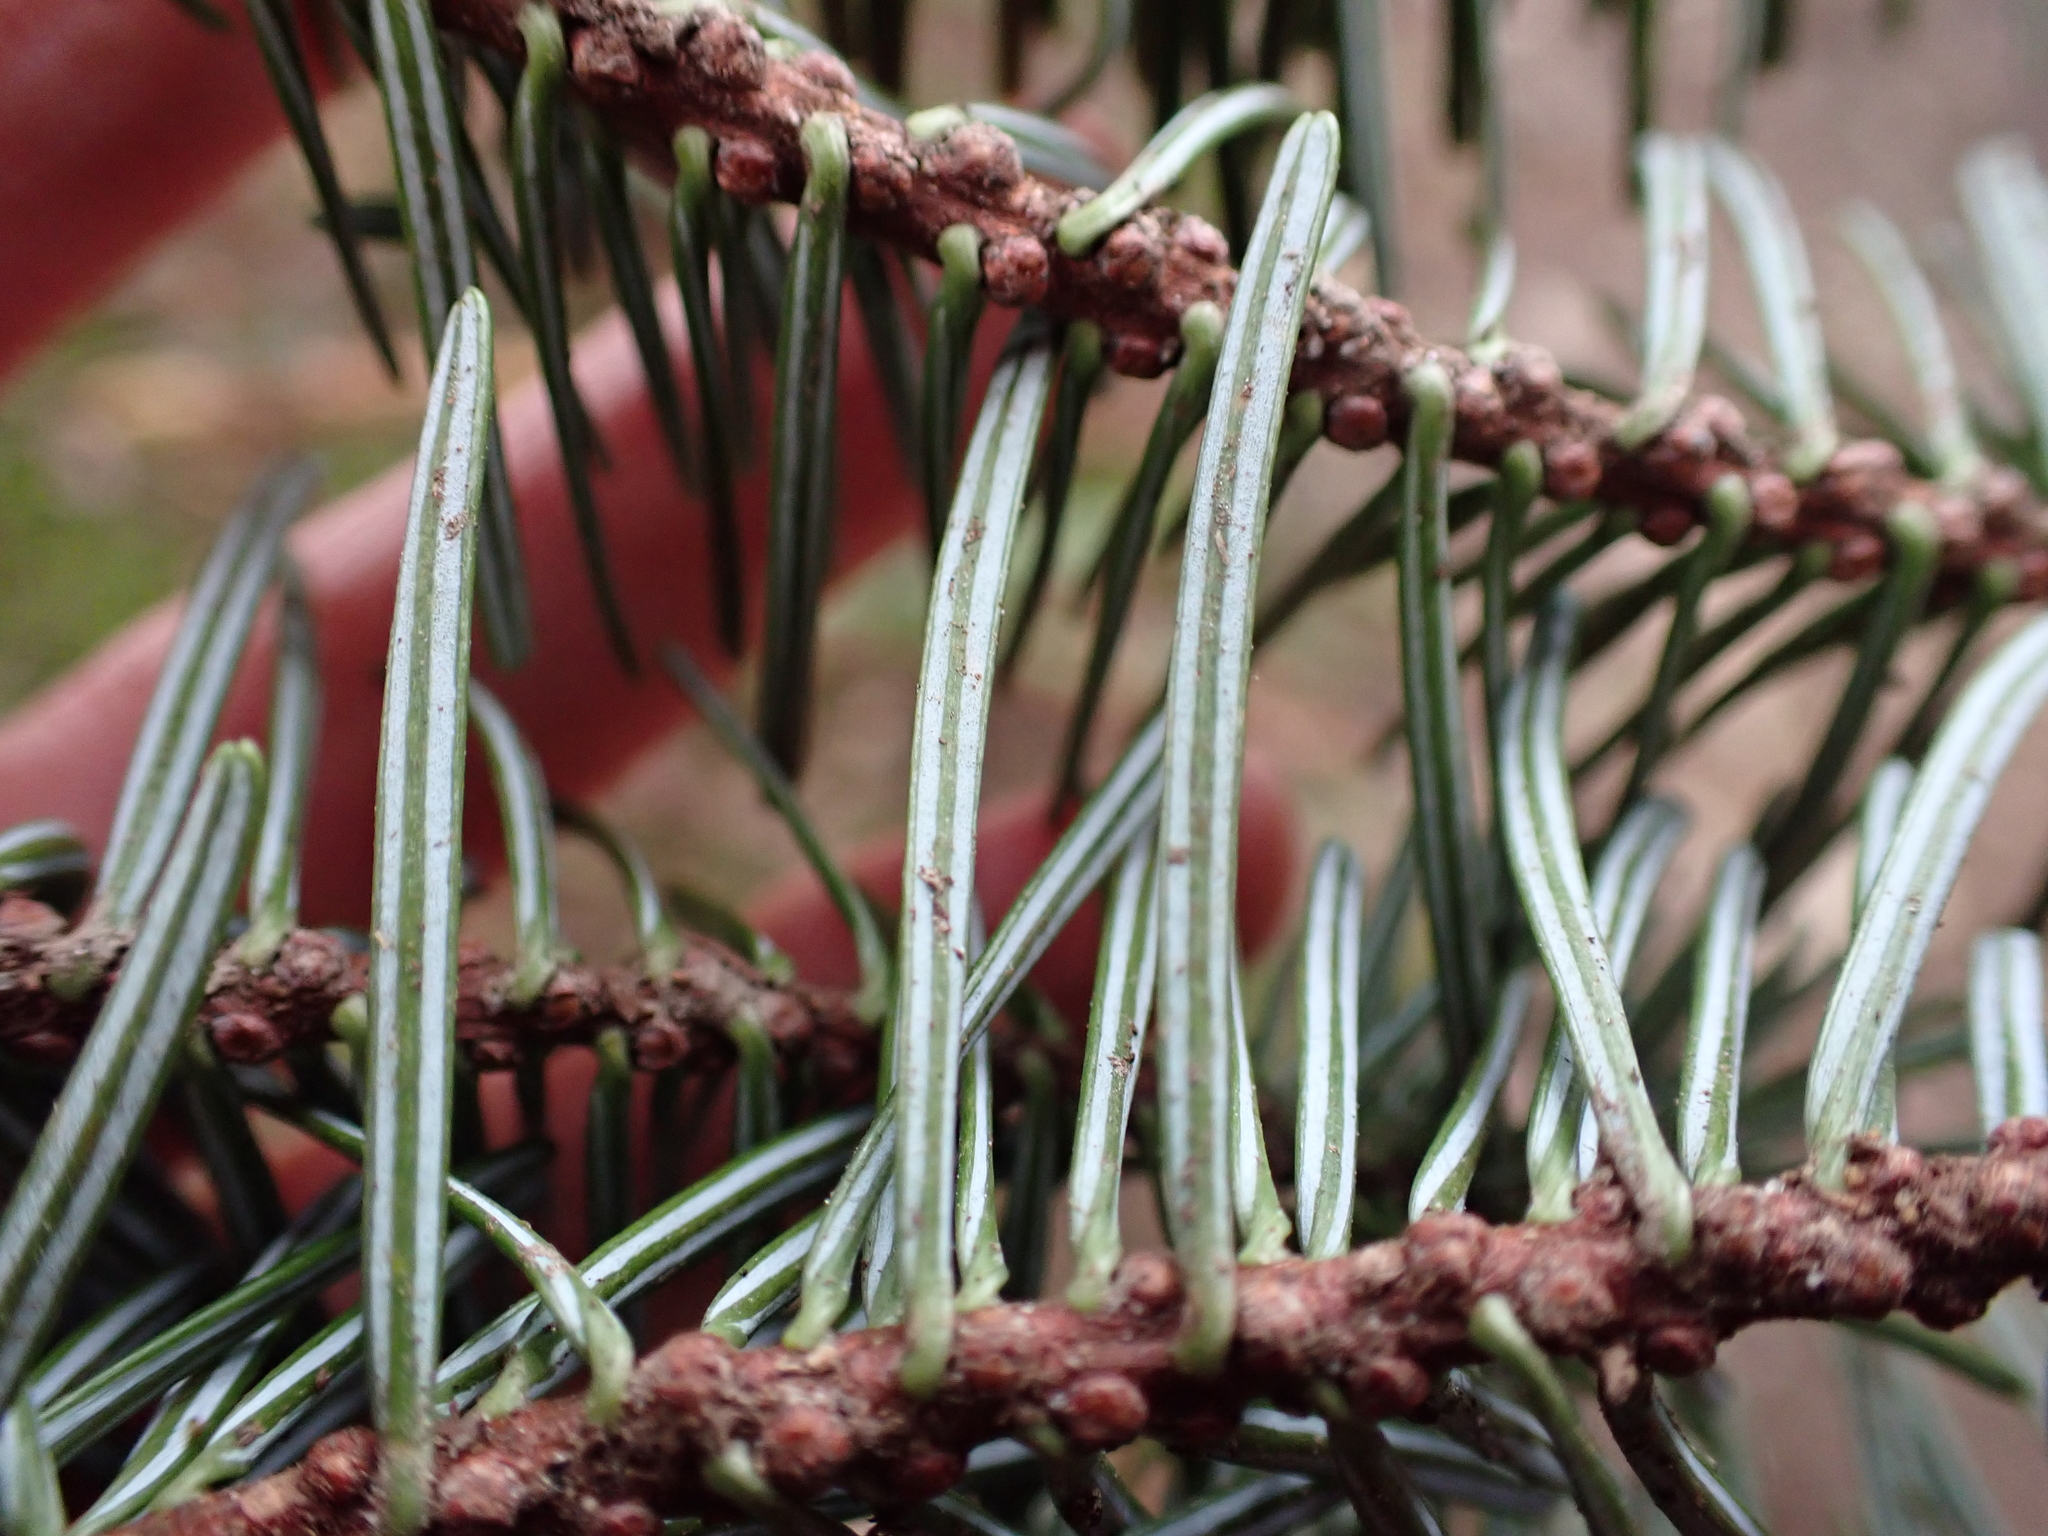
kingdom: Plantae
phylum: Tracheophyta
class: Pinopsida
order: Pinales
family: Pinaceae
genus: Abies
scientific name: Abies grandis
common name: Giant fir
